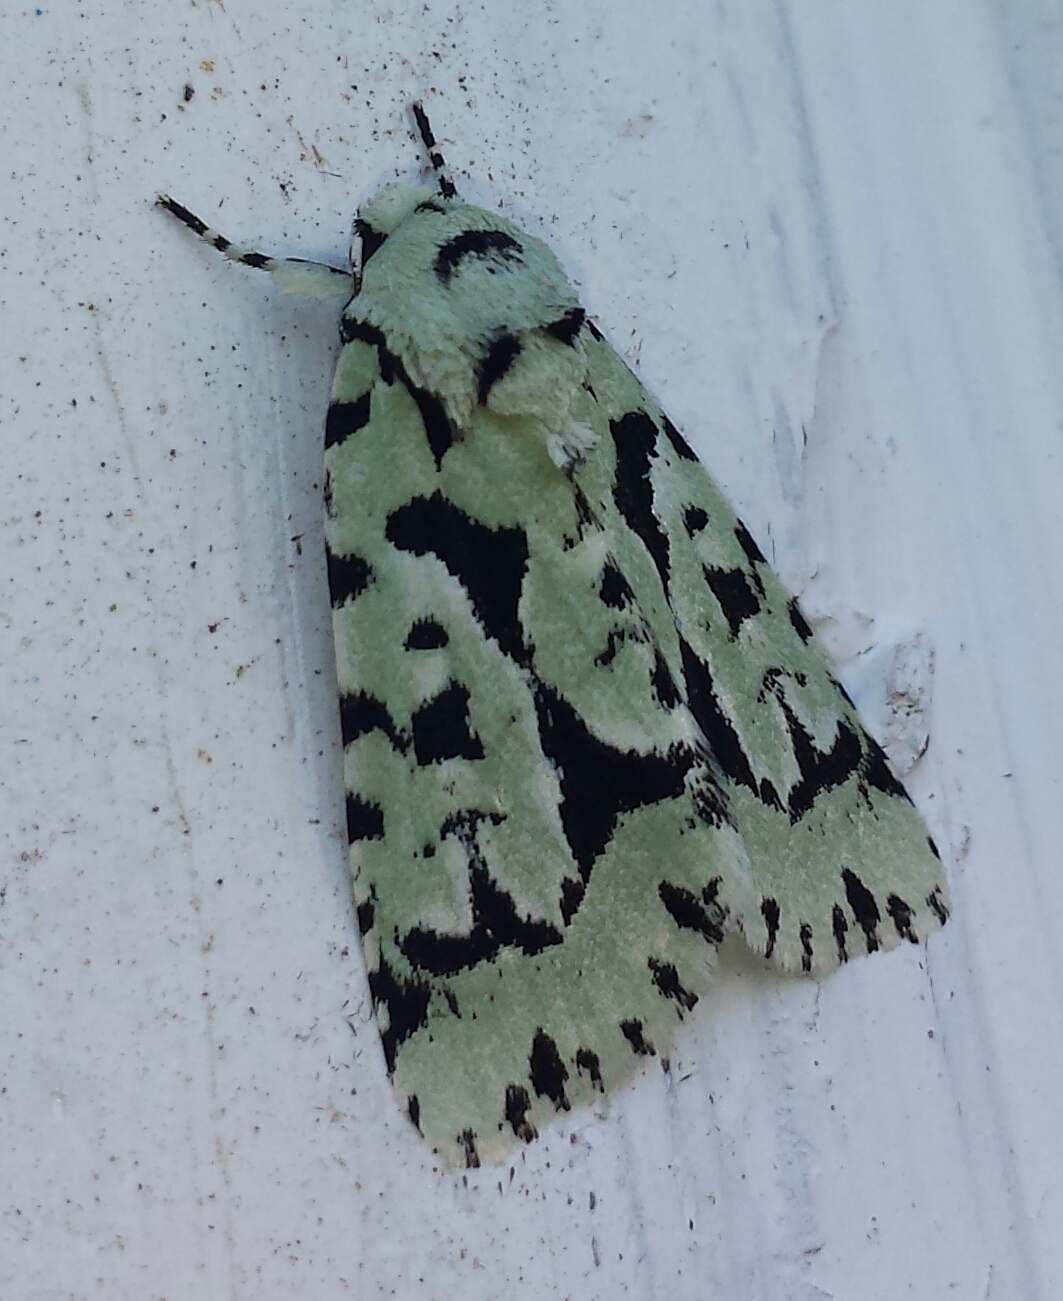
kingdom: Animalia
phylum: Arthropoda
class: Insecta
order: Lepidoptera
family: Noctuidae
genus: Acronicta
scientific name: Acronicta fallax
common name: Green marvel
